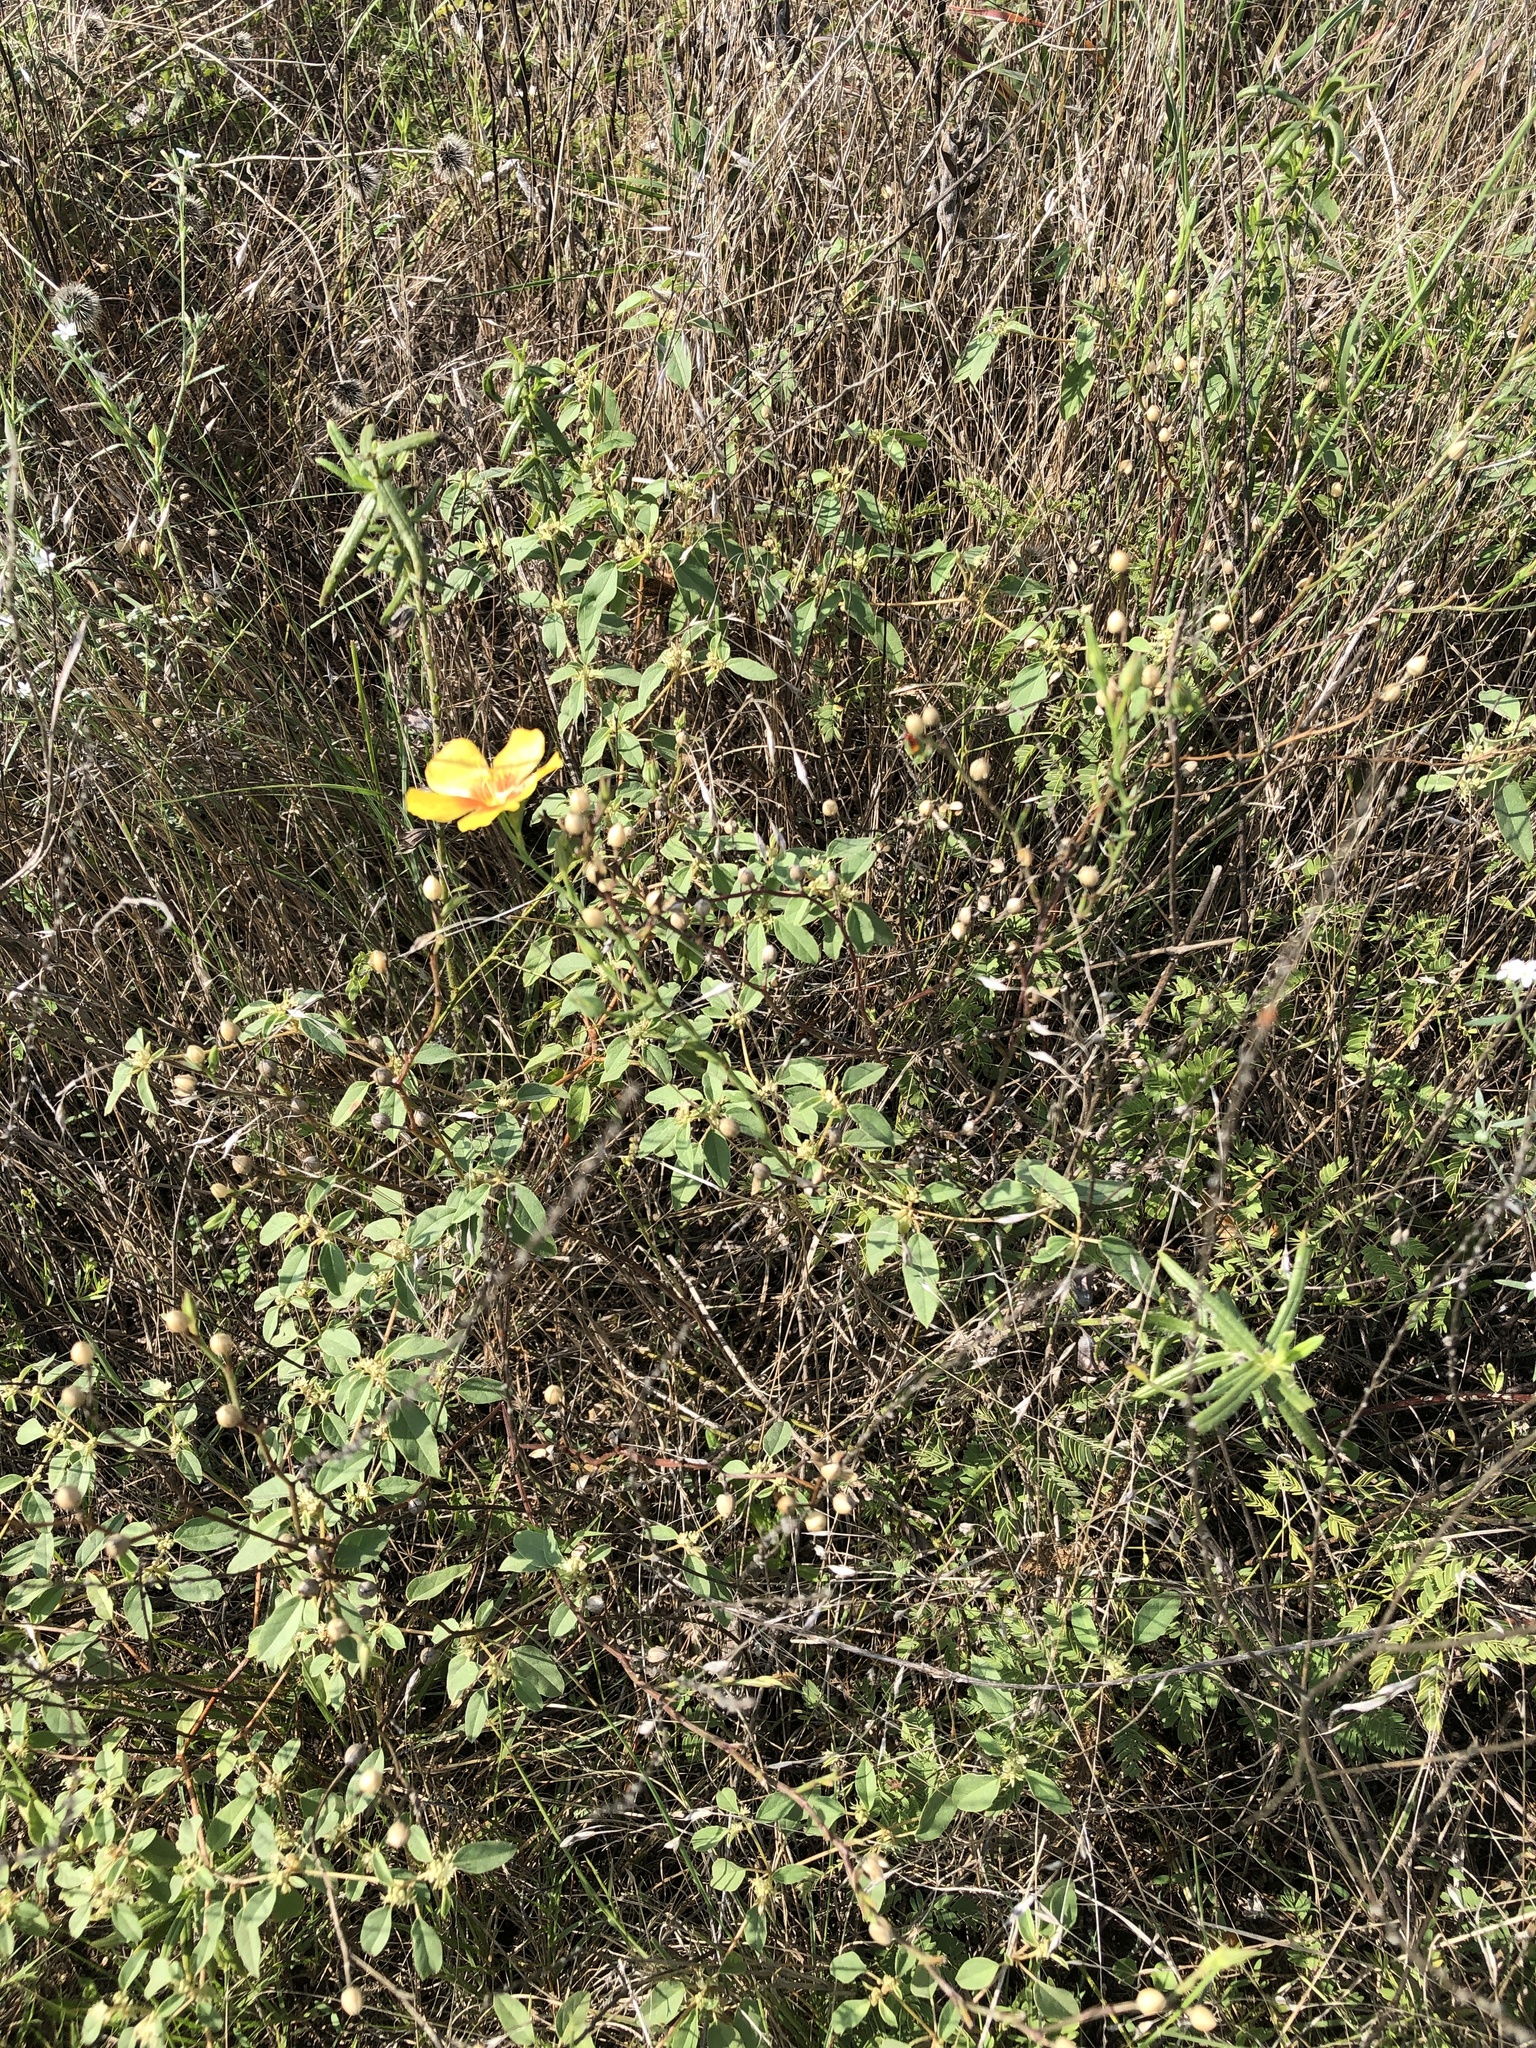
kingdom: Plantae
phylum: Tracheophyta
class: Magnoliopsida
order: Malpighiales
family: Linaceae
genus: Linum
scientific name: Linum rigidum
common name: Stiff-stem flax
